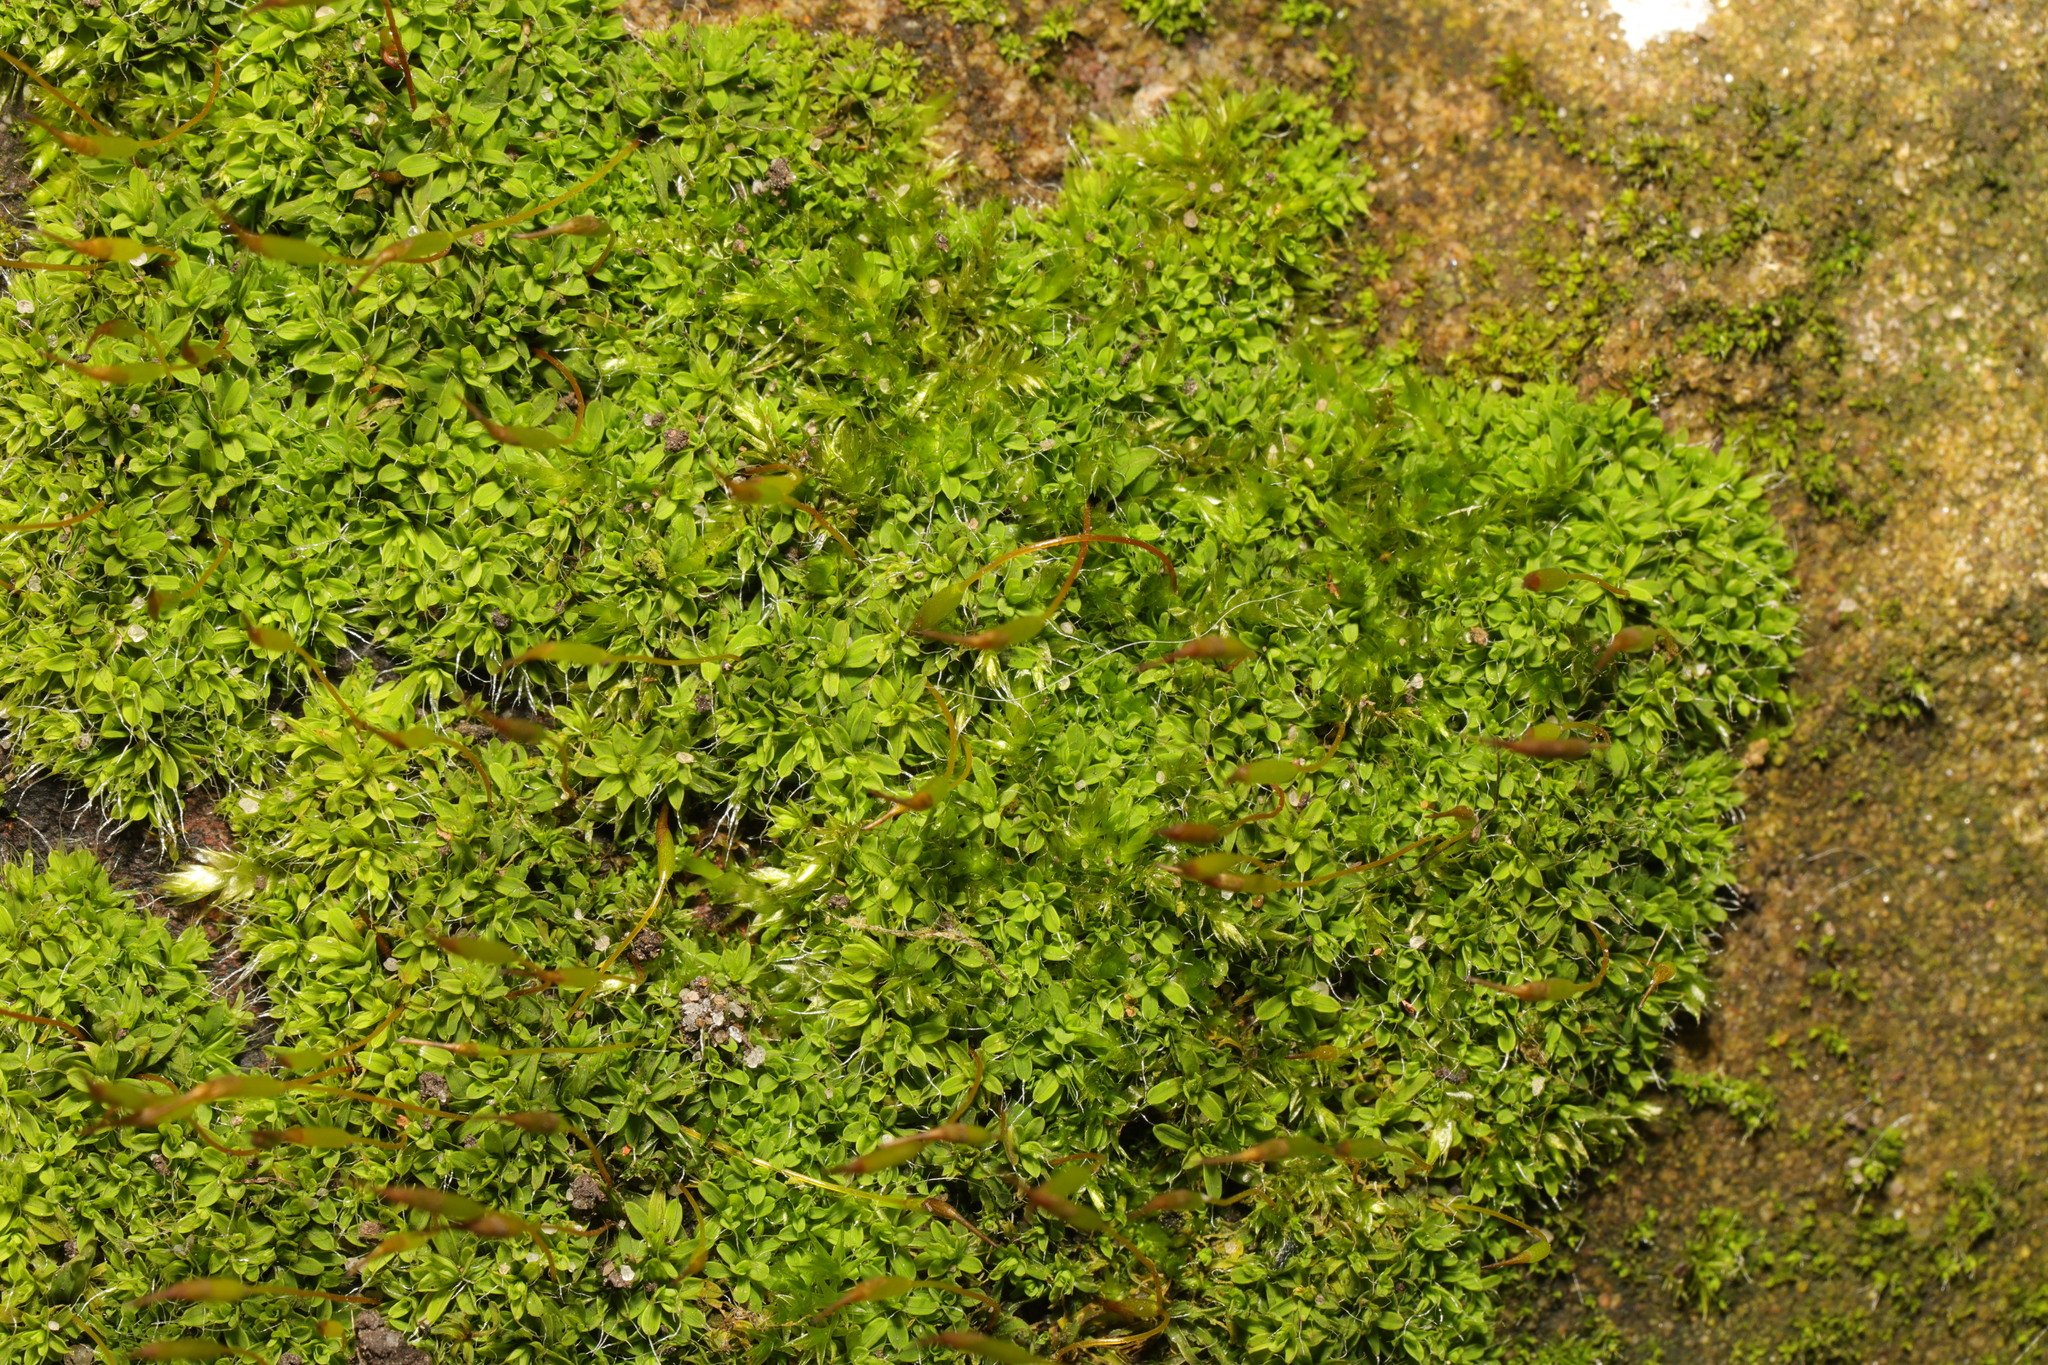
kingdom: Plantae
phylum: Bryophyta
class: Bryopsida
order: Pottiales
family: Pottiaceae
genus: Tortula
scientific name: Tortula muralis
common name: Wall screw-moss
